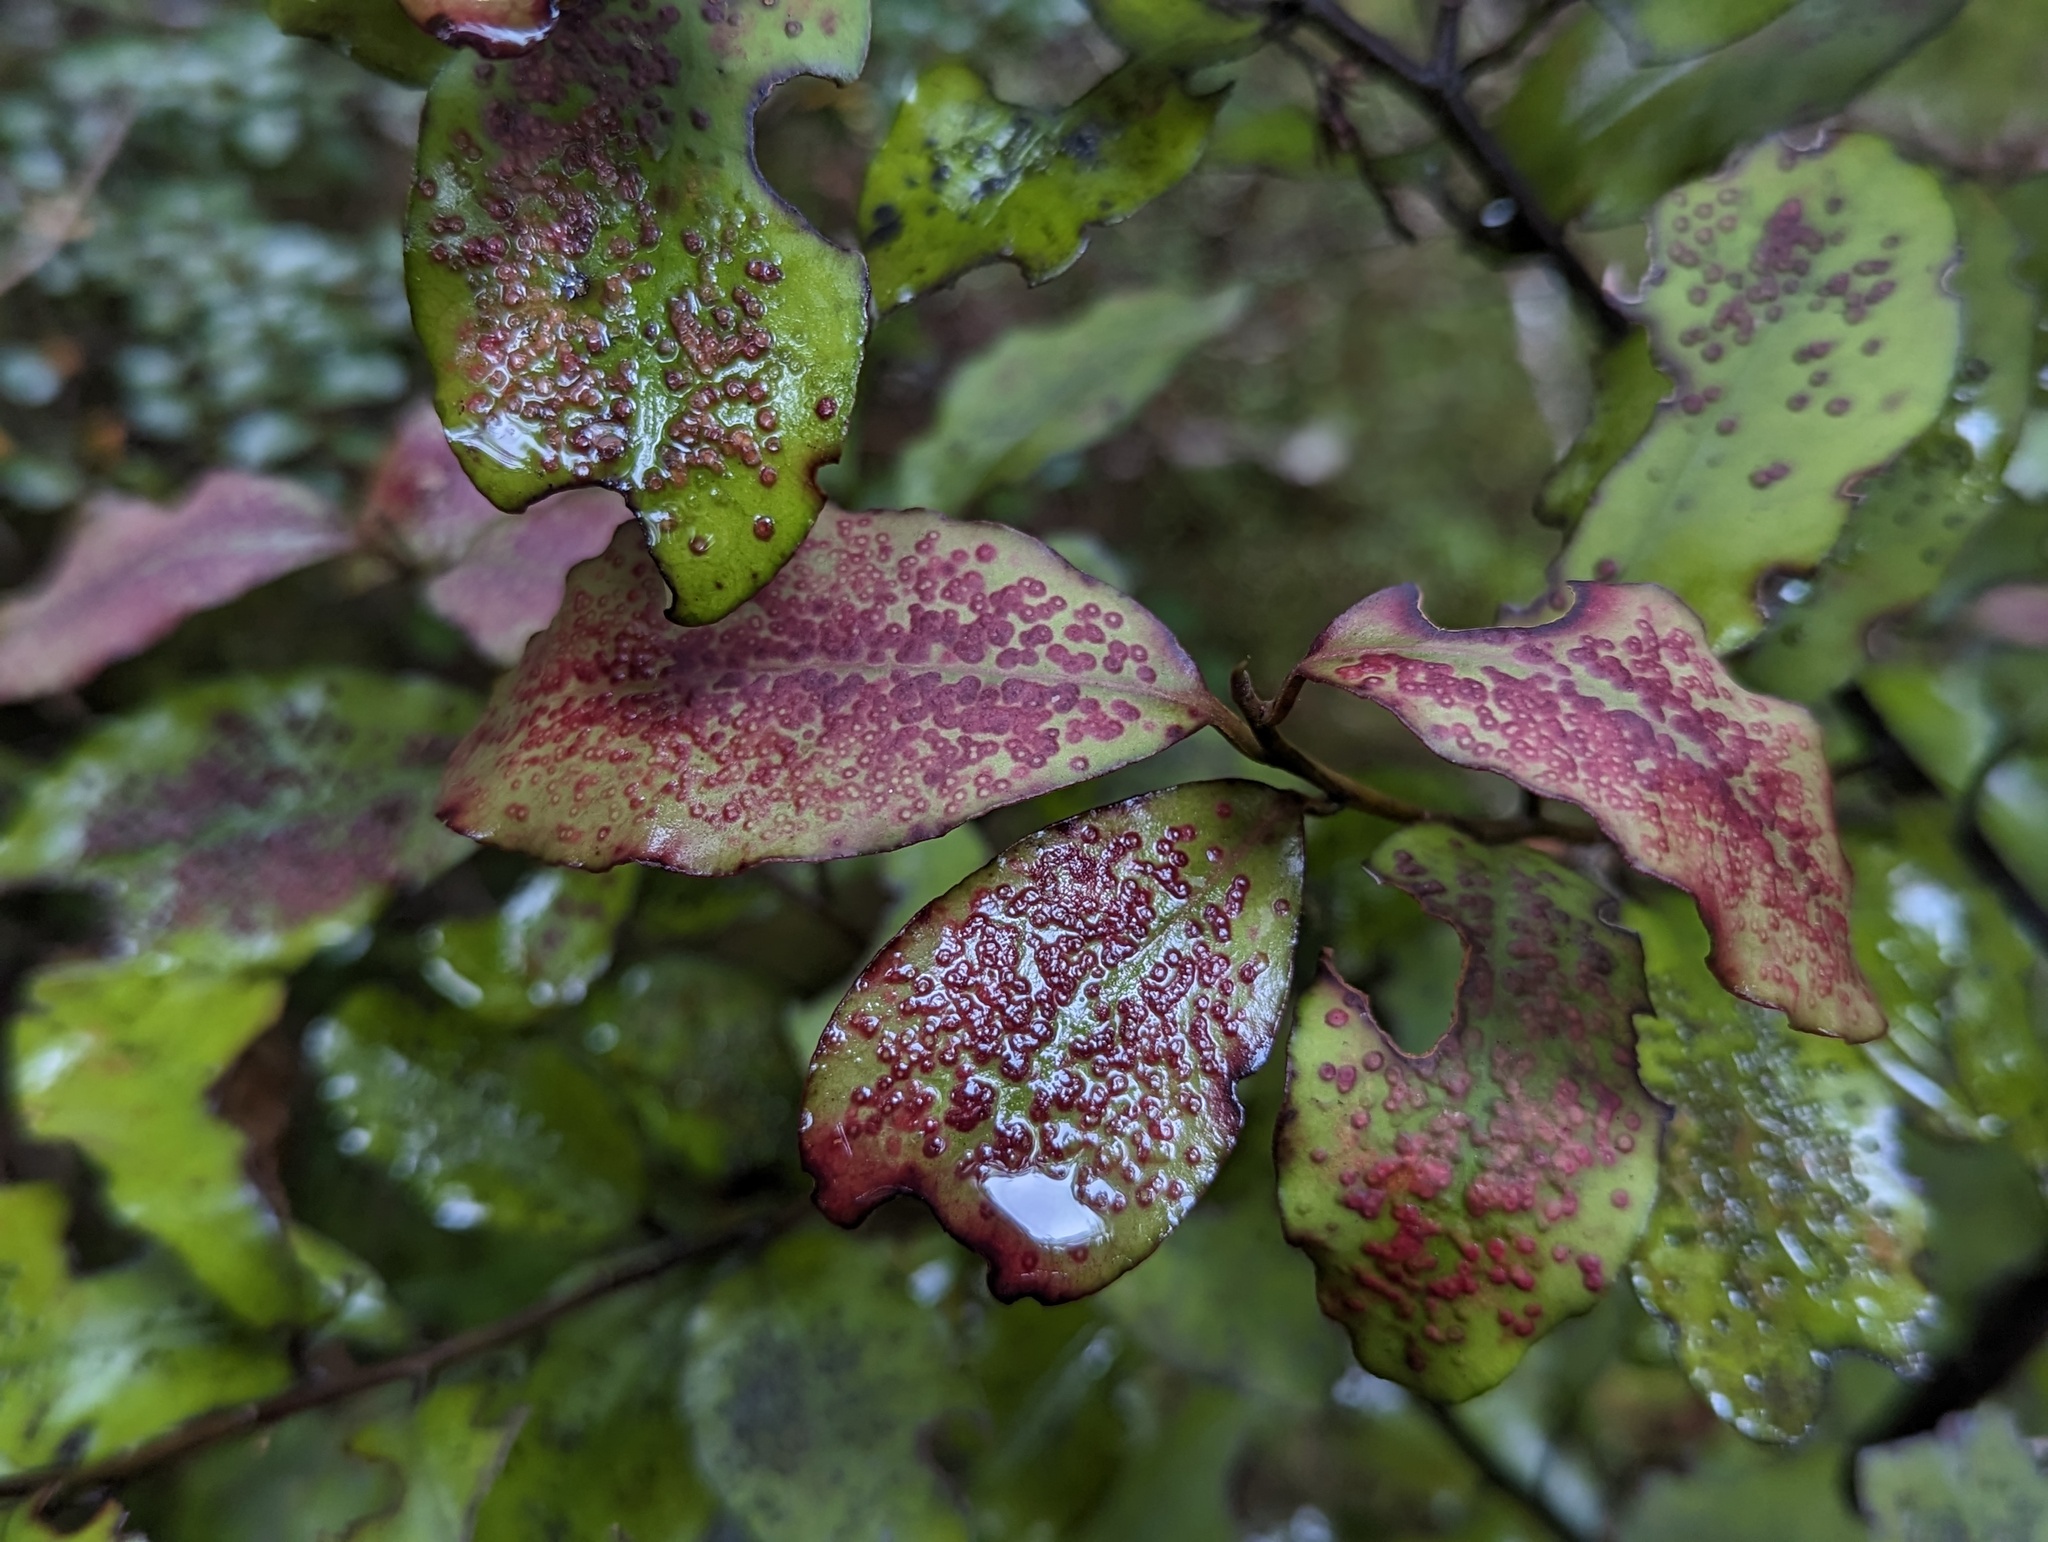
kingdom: Plantae
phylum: Tracheophyta
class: Magnoliopsida
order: Canellales
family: Winteraceae
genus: Pseudowintera
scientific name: Pseudowintera colorata
